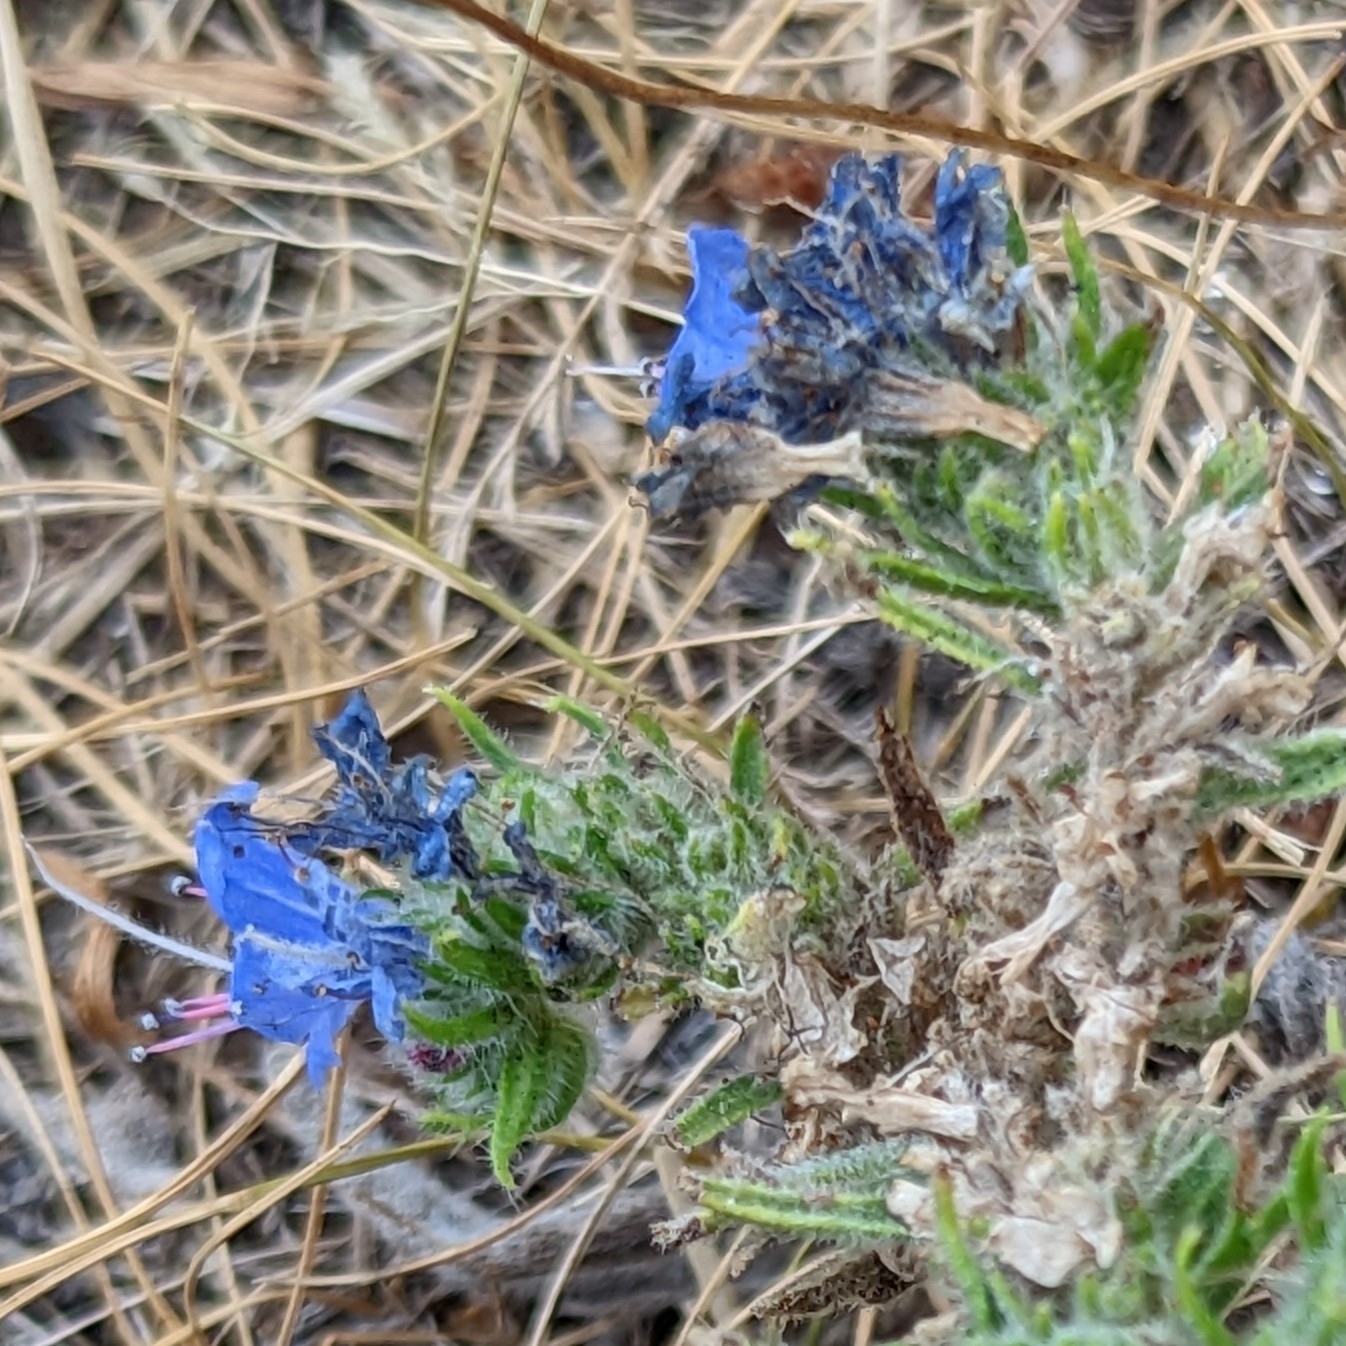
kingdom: Plantae
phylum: Tracheophyta
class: Magnoliopsida
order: Boraginales
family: Boraginaceae
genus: Echium
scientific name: Echium vulgare
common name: Common viper's bugloss
